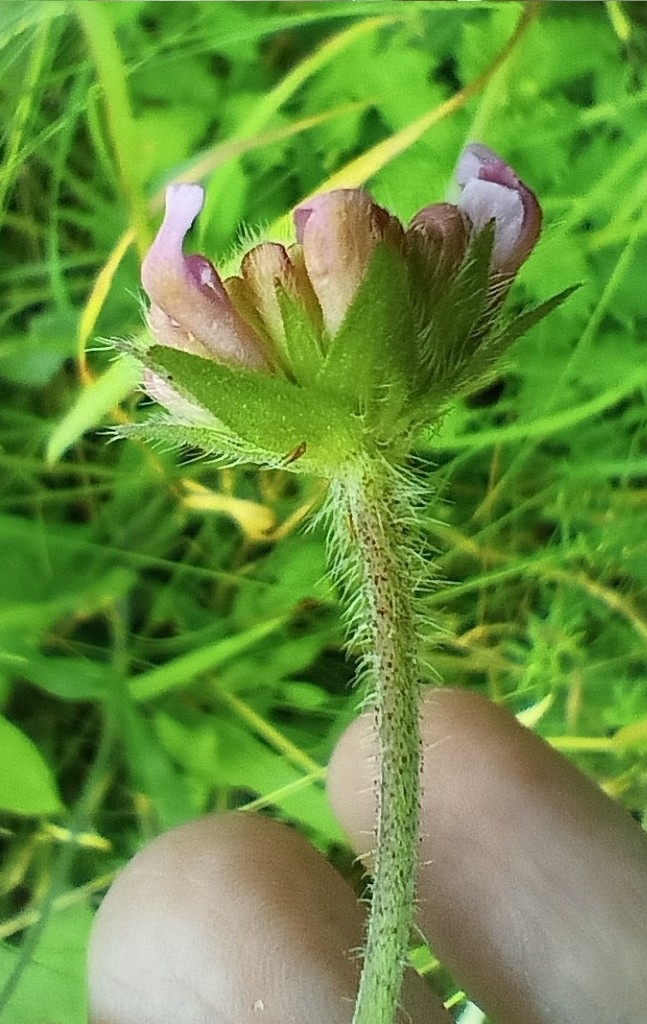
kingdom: Plantae
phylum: Tracheophyta
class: Magnoliopsida
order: Dipsacales
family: Caprifoliaceae
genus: Knautia
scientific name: Knautia arvensis
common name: Field scabiosa
